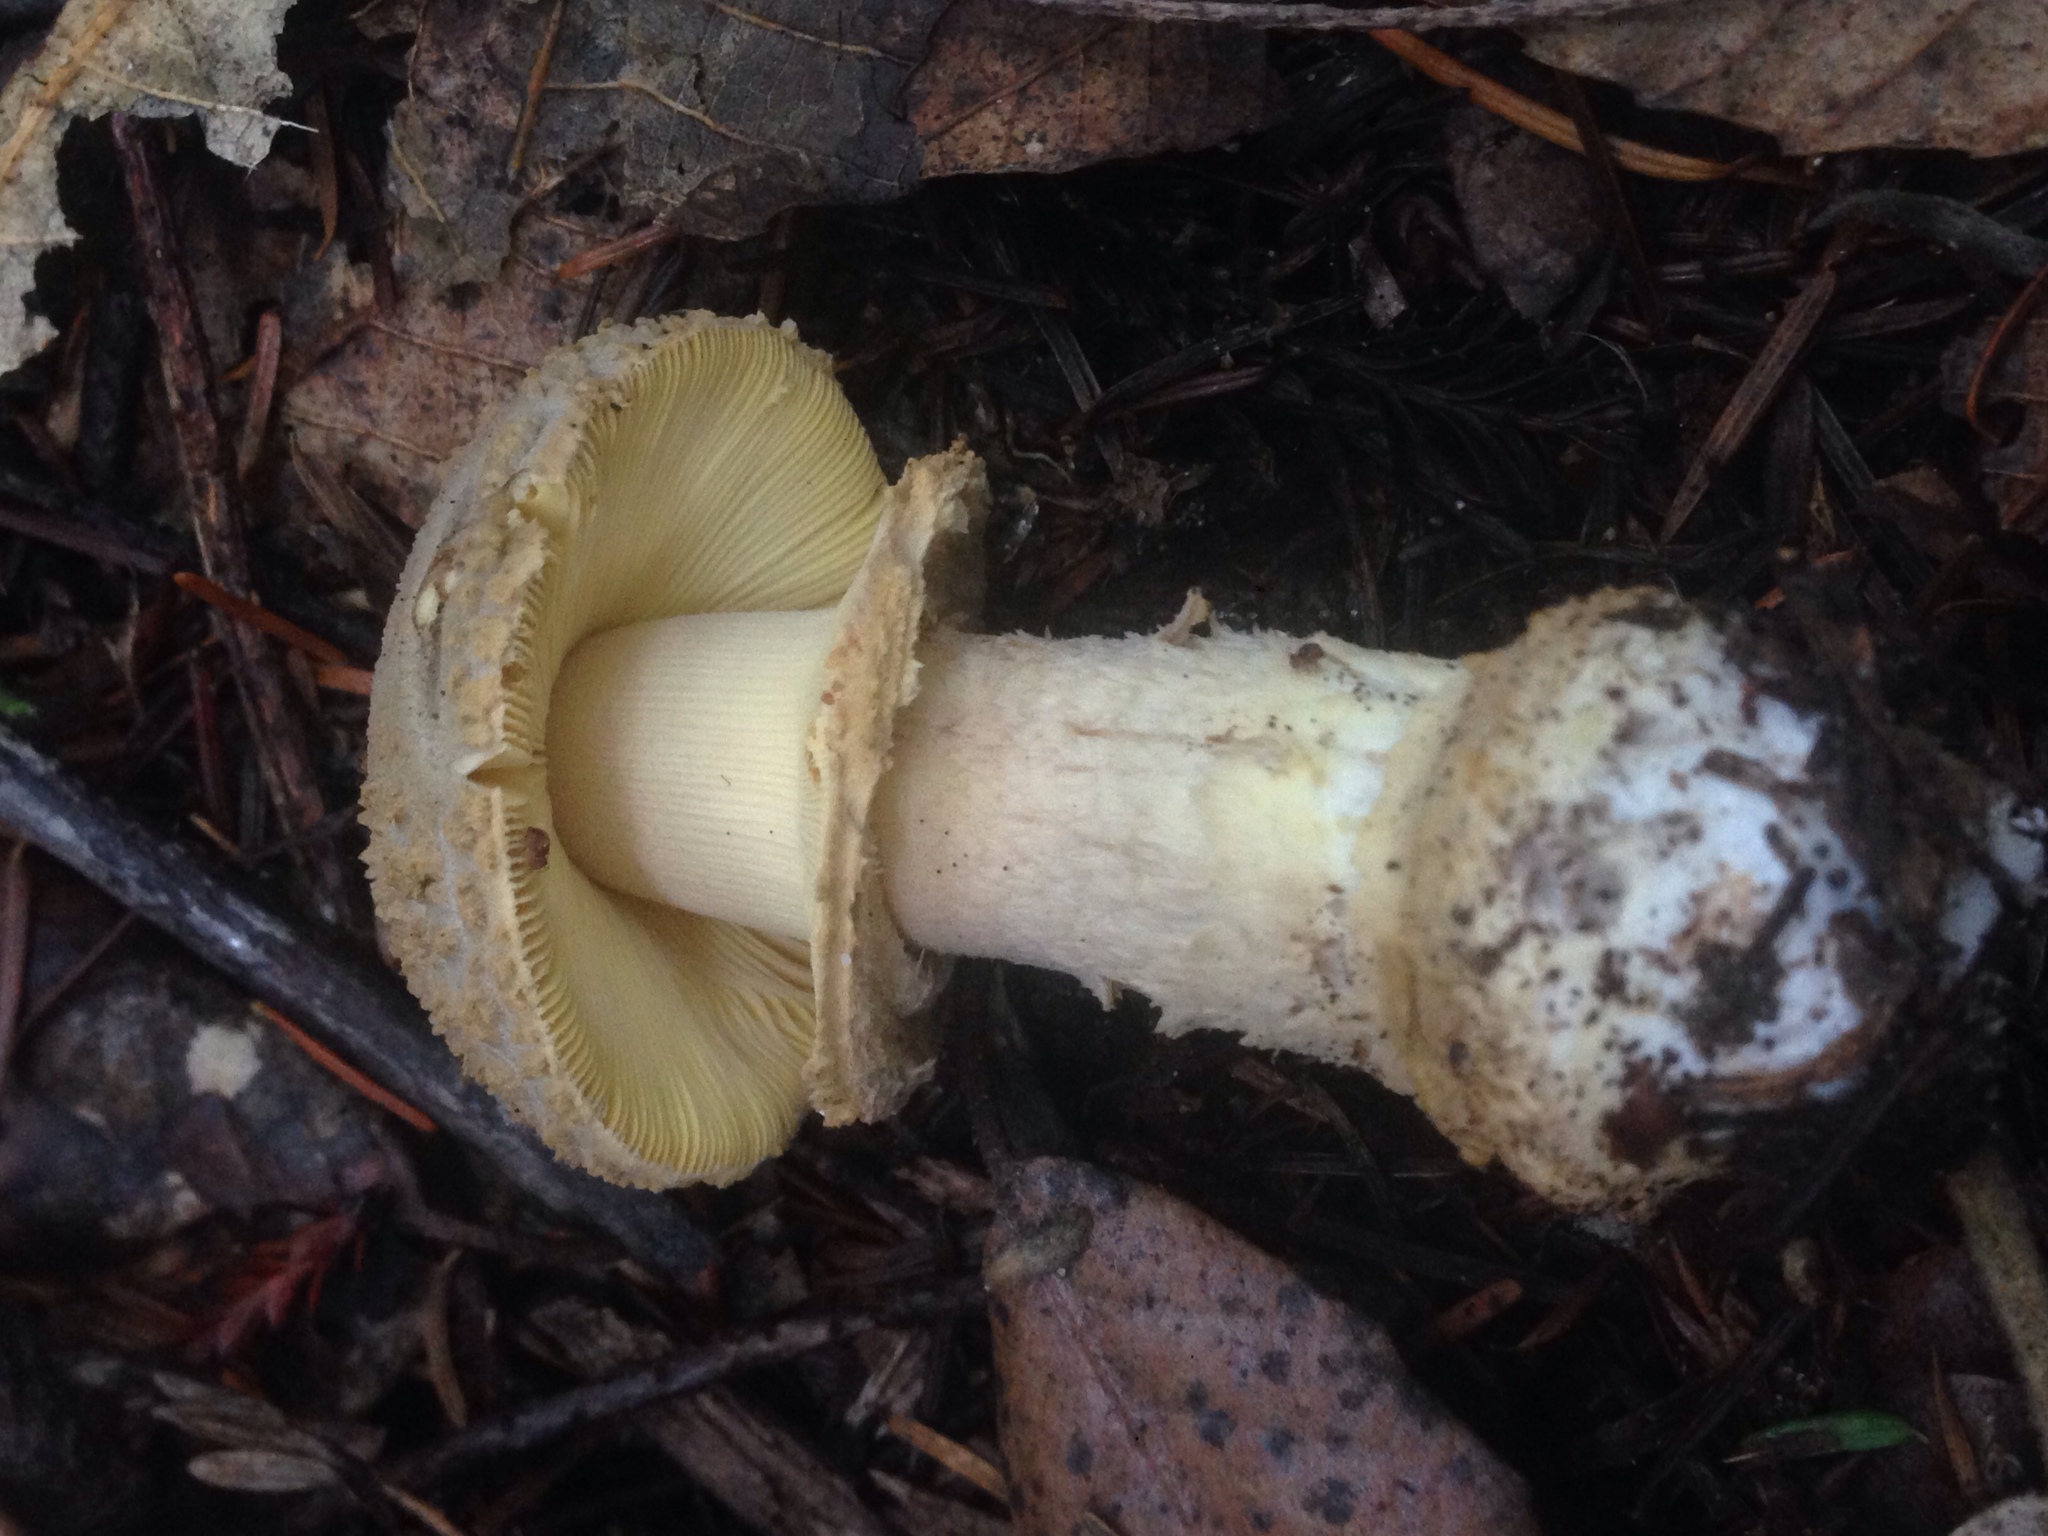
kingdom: Fungi
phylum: Basidiomycota
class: Agaricomycetes
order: Agaricales
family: Amanitaceae
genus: Amanita
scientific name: Amanita augusta
